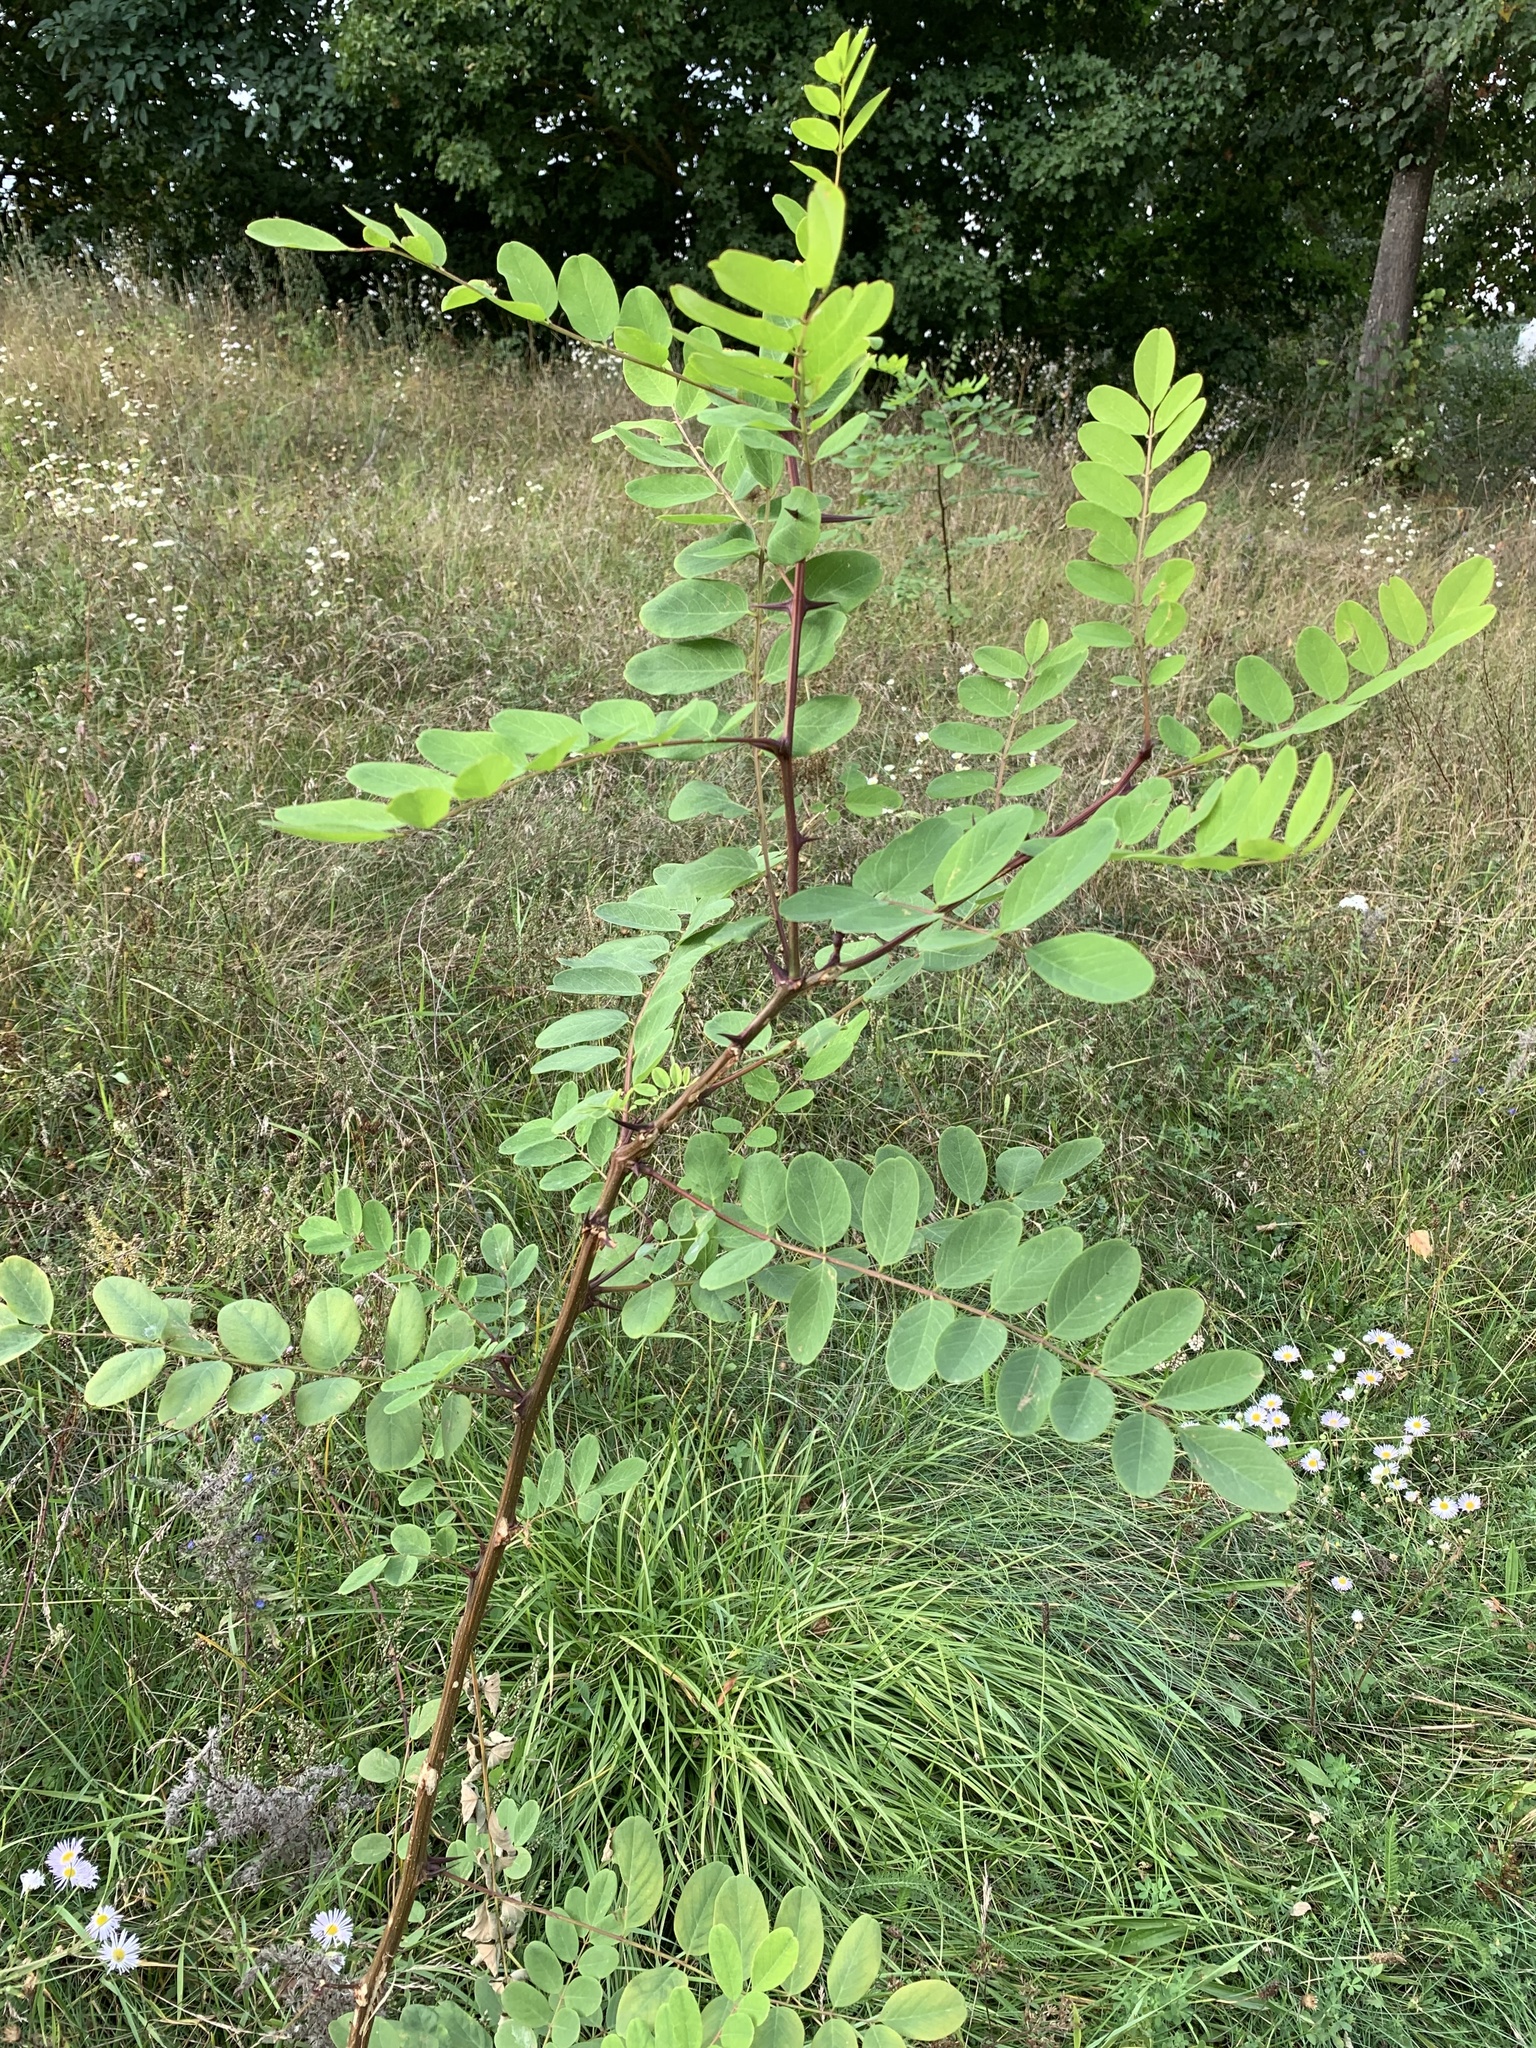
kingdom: Plantae
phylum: Tracheophyta
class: Magnoliopsida
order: Fabales
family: Fabaceae
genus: Robinia
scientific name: Robinia pseudoacacia
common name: Black locust
